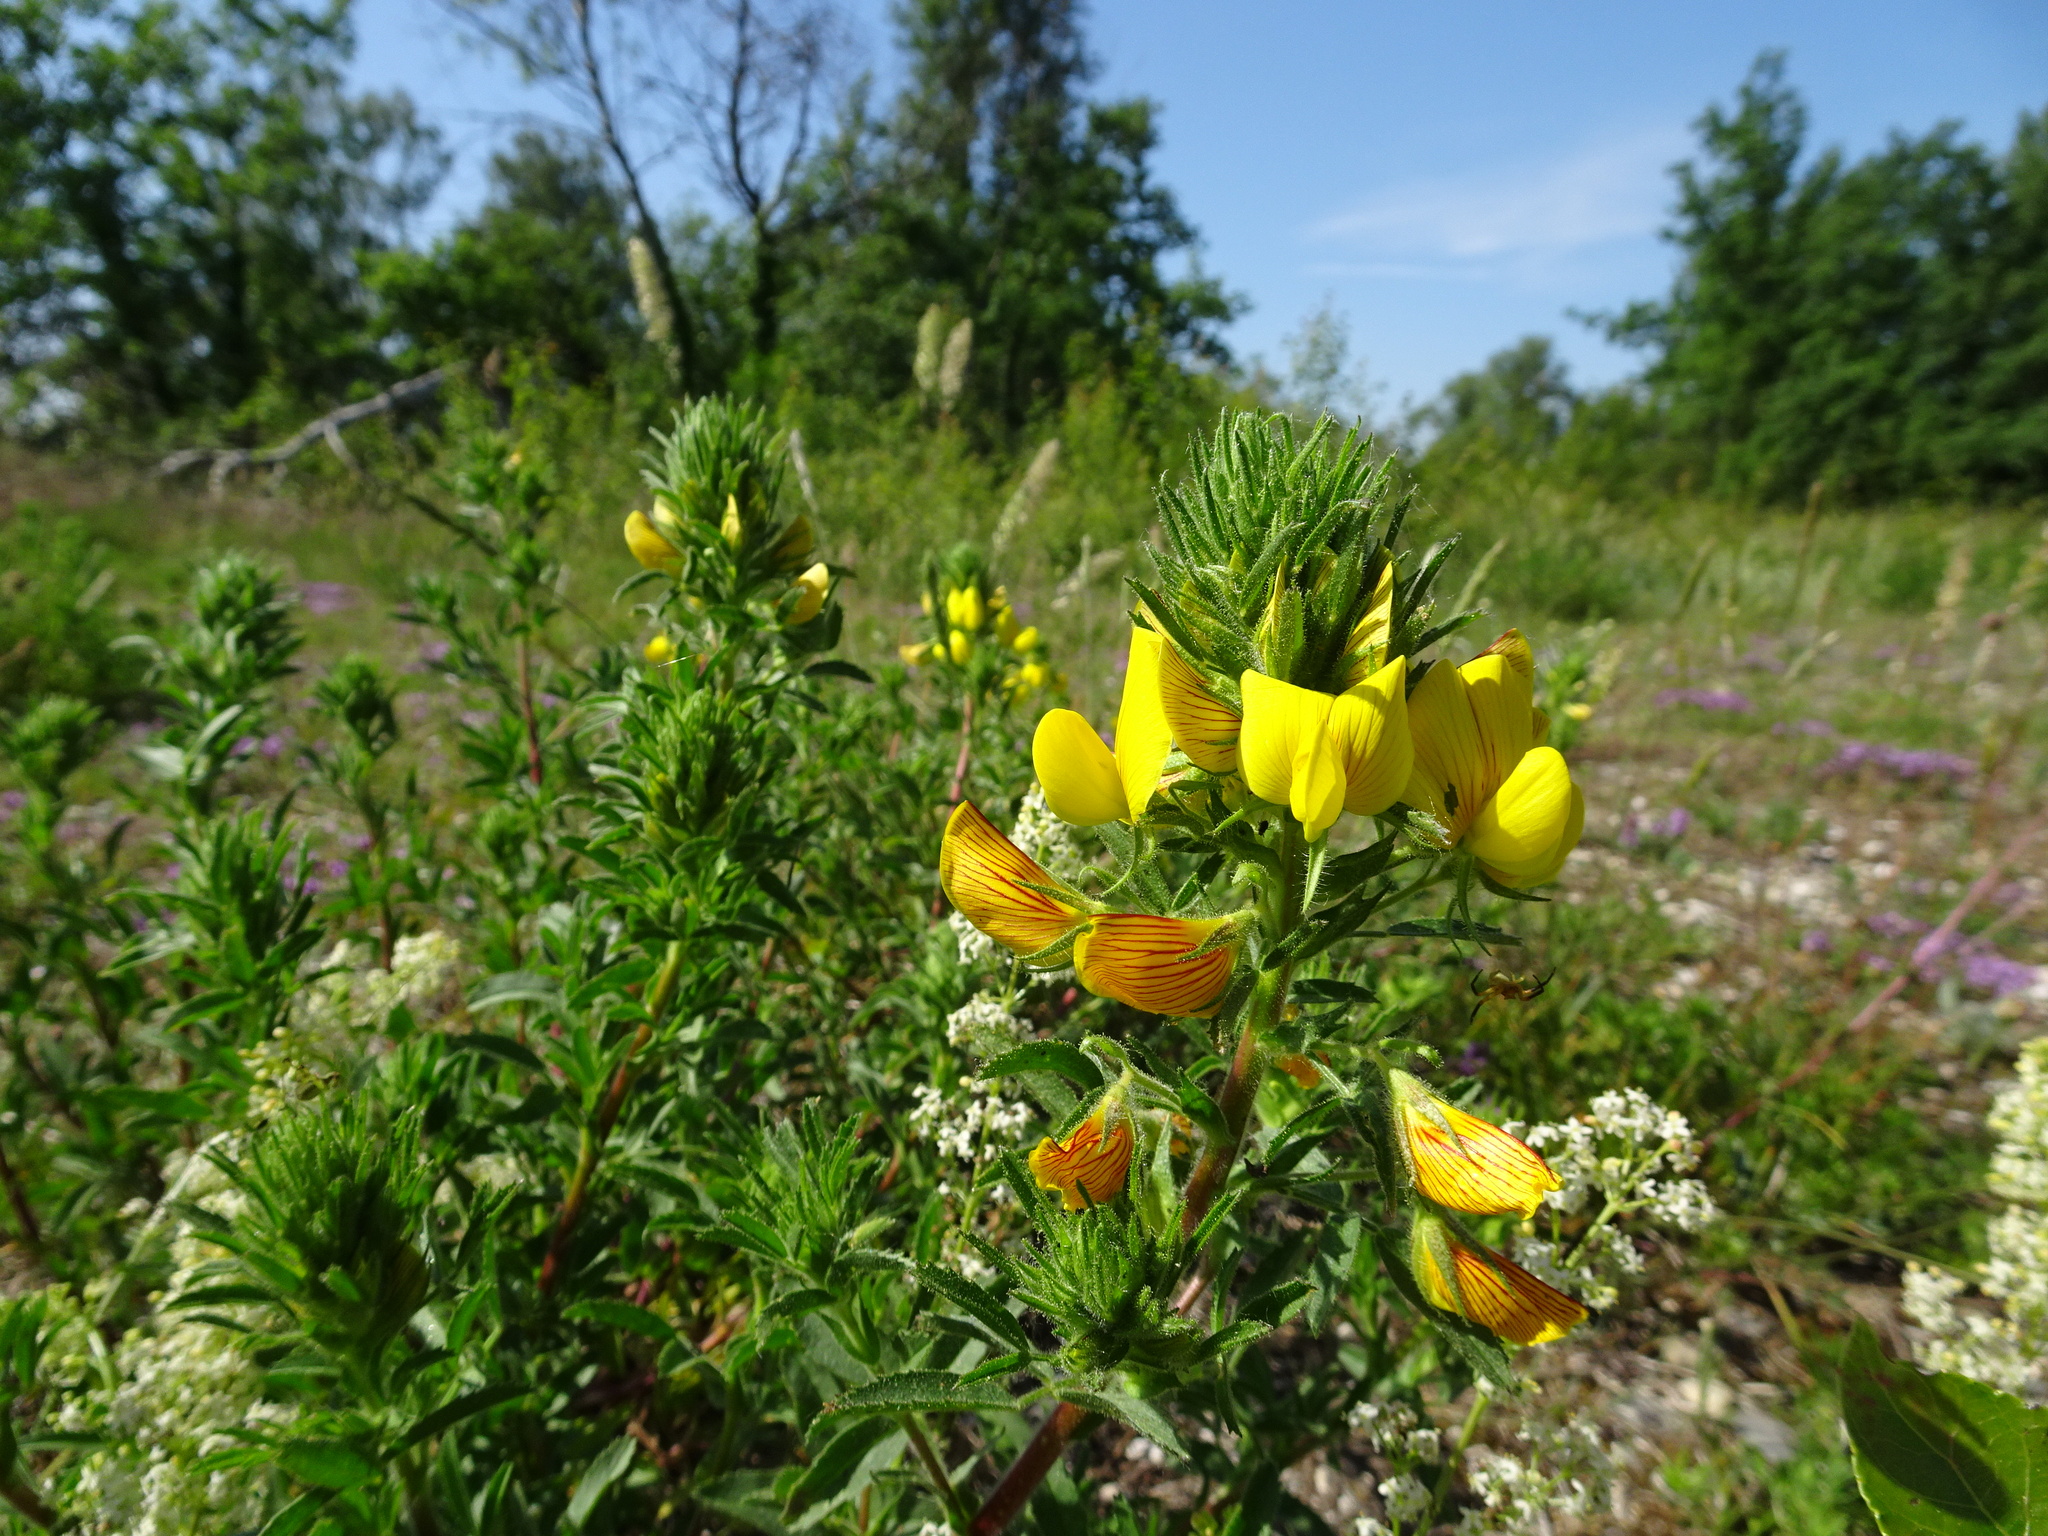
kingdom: Plantae
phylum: Tracheophyta
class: Magnoliopsida
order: Fabales
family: Fabaceae
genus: Ononis
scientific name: Ononis natrix
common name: Yellow restharrow
